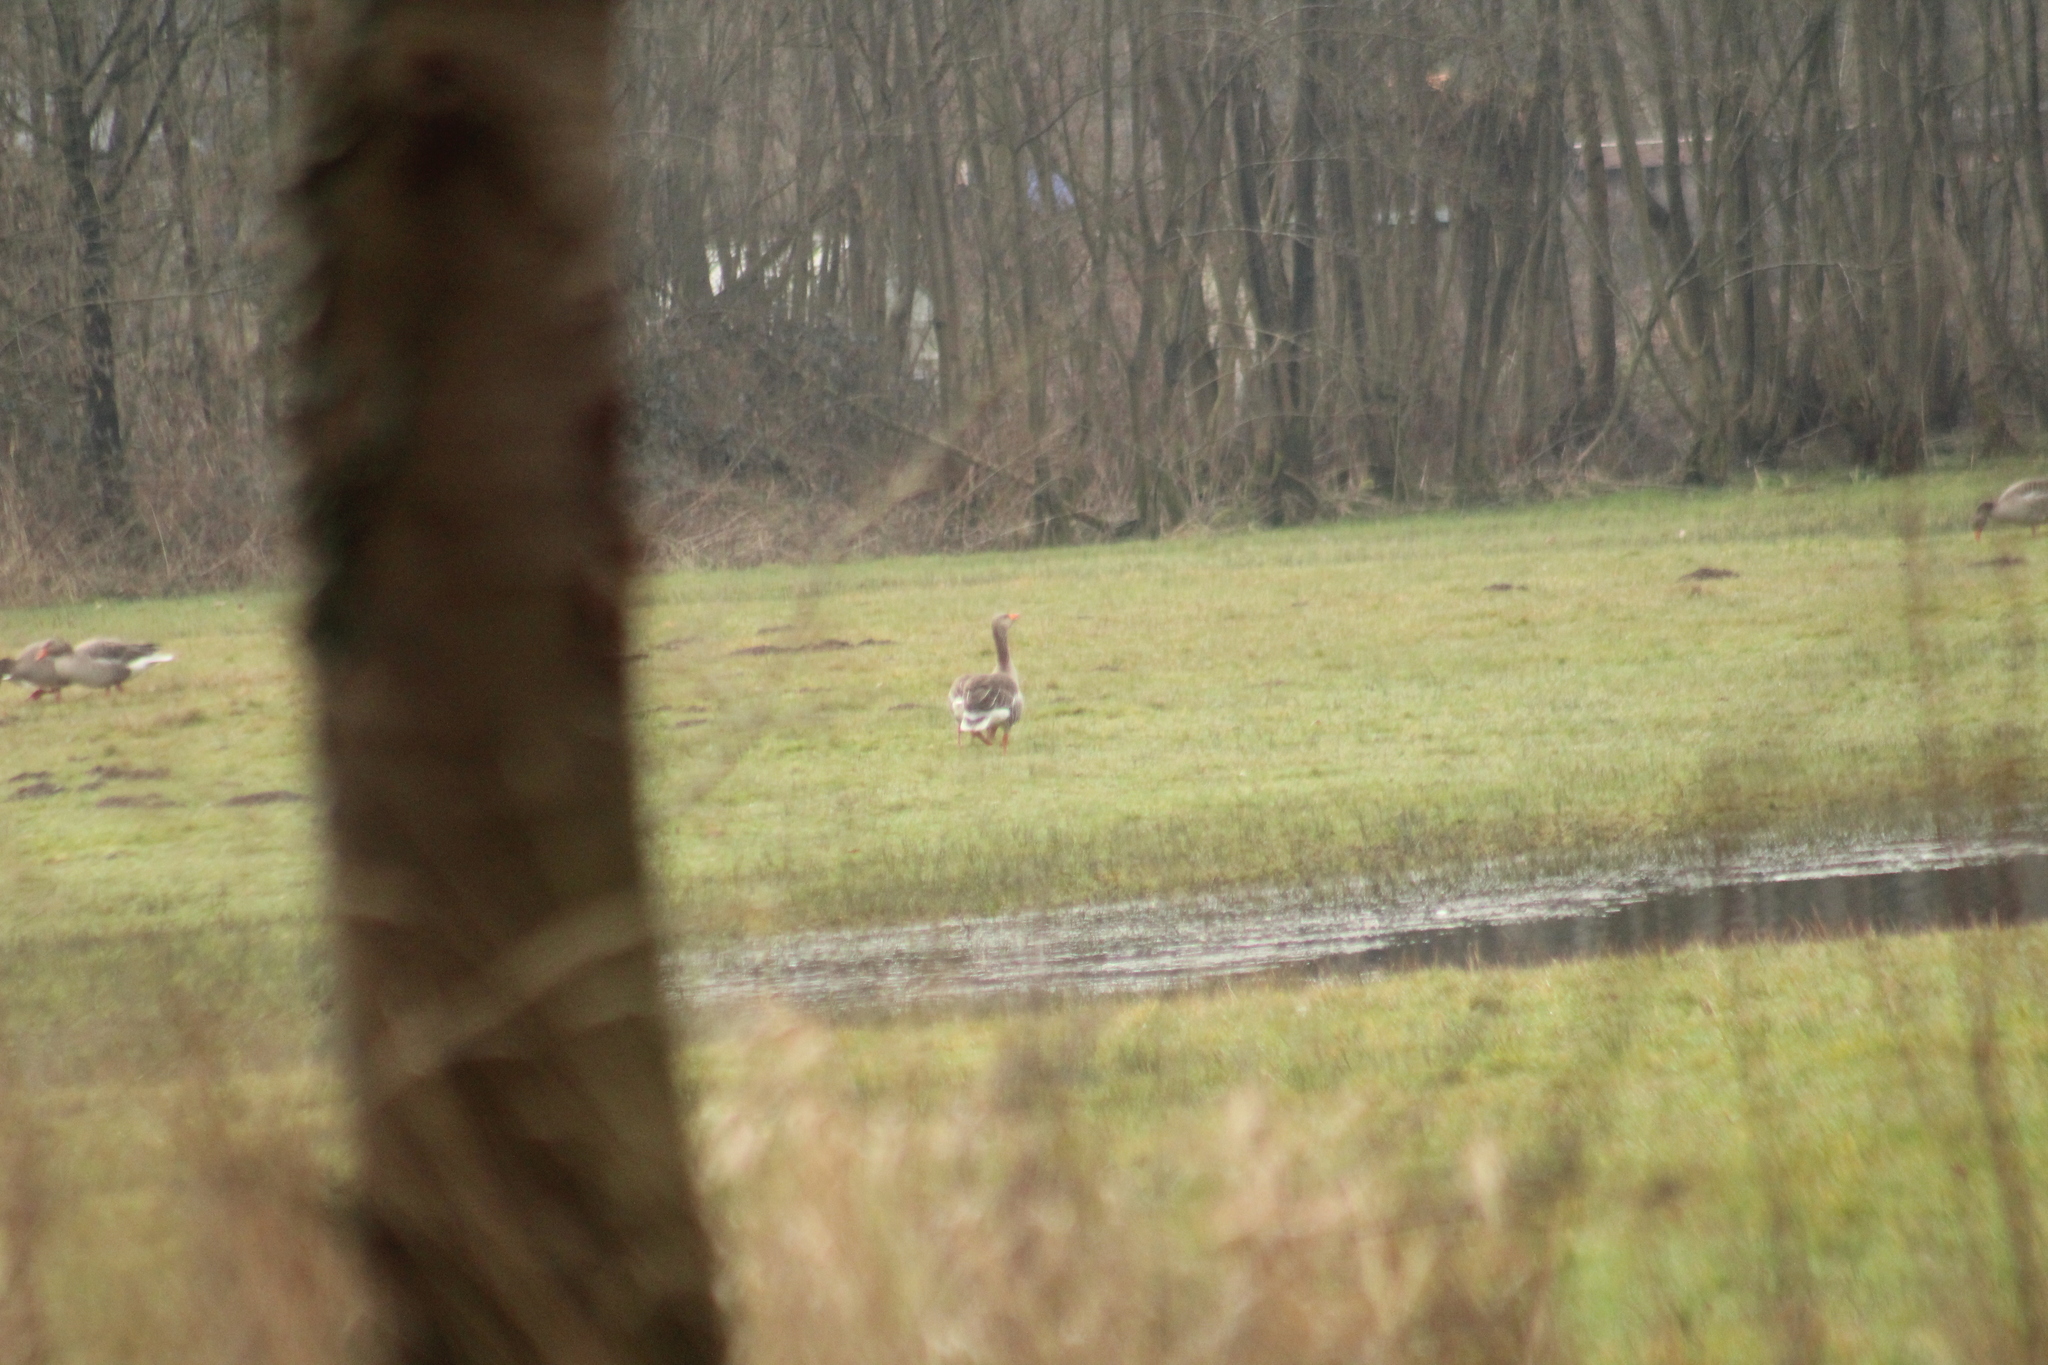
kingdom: Animalia
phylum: Chordata
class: Aves
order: Anseriformes
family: Anatidae
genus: Anser
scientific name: Anser anser
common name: Greylag goose
